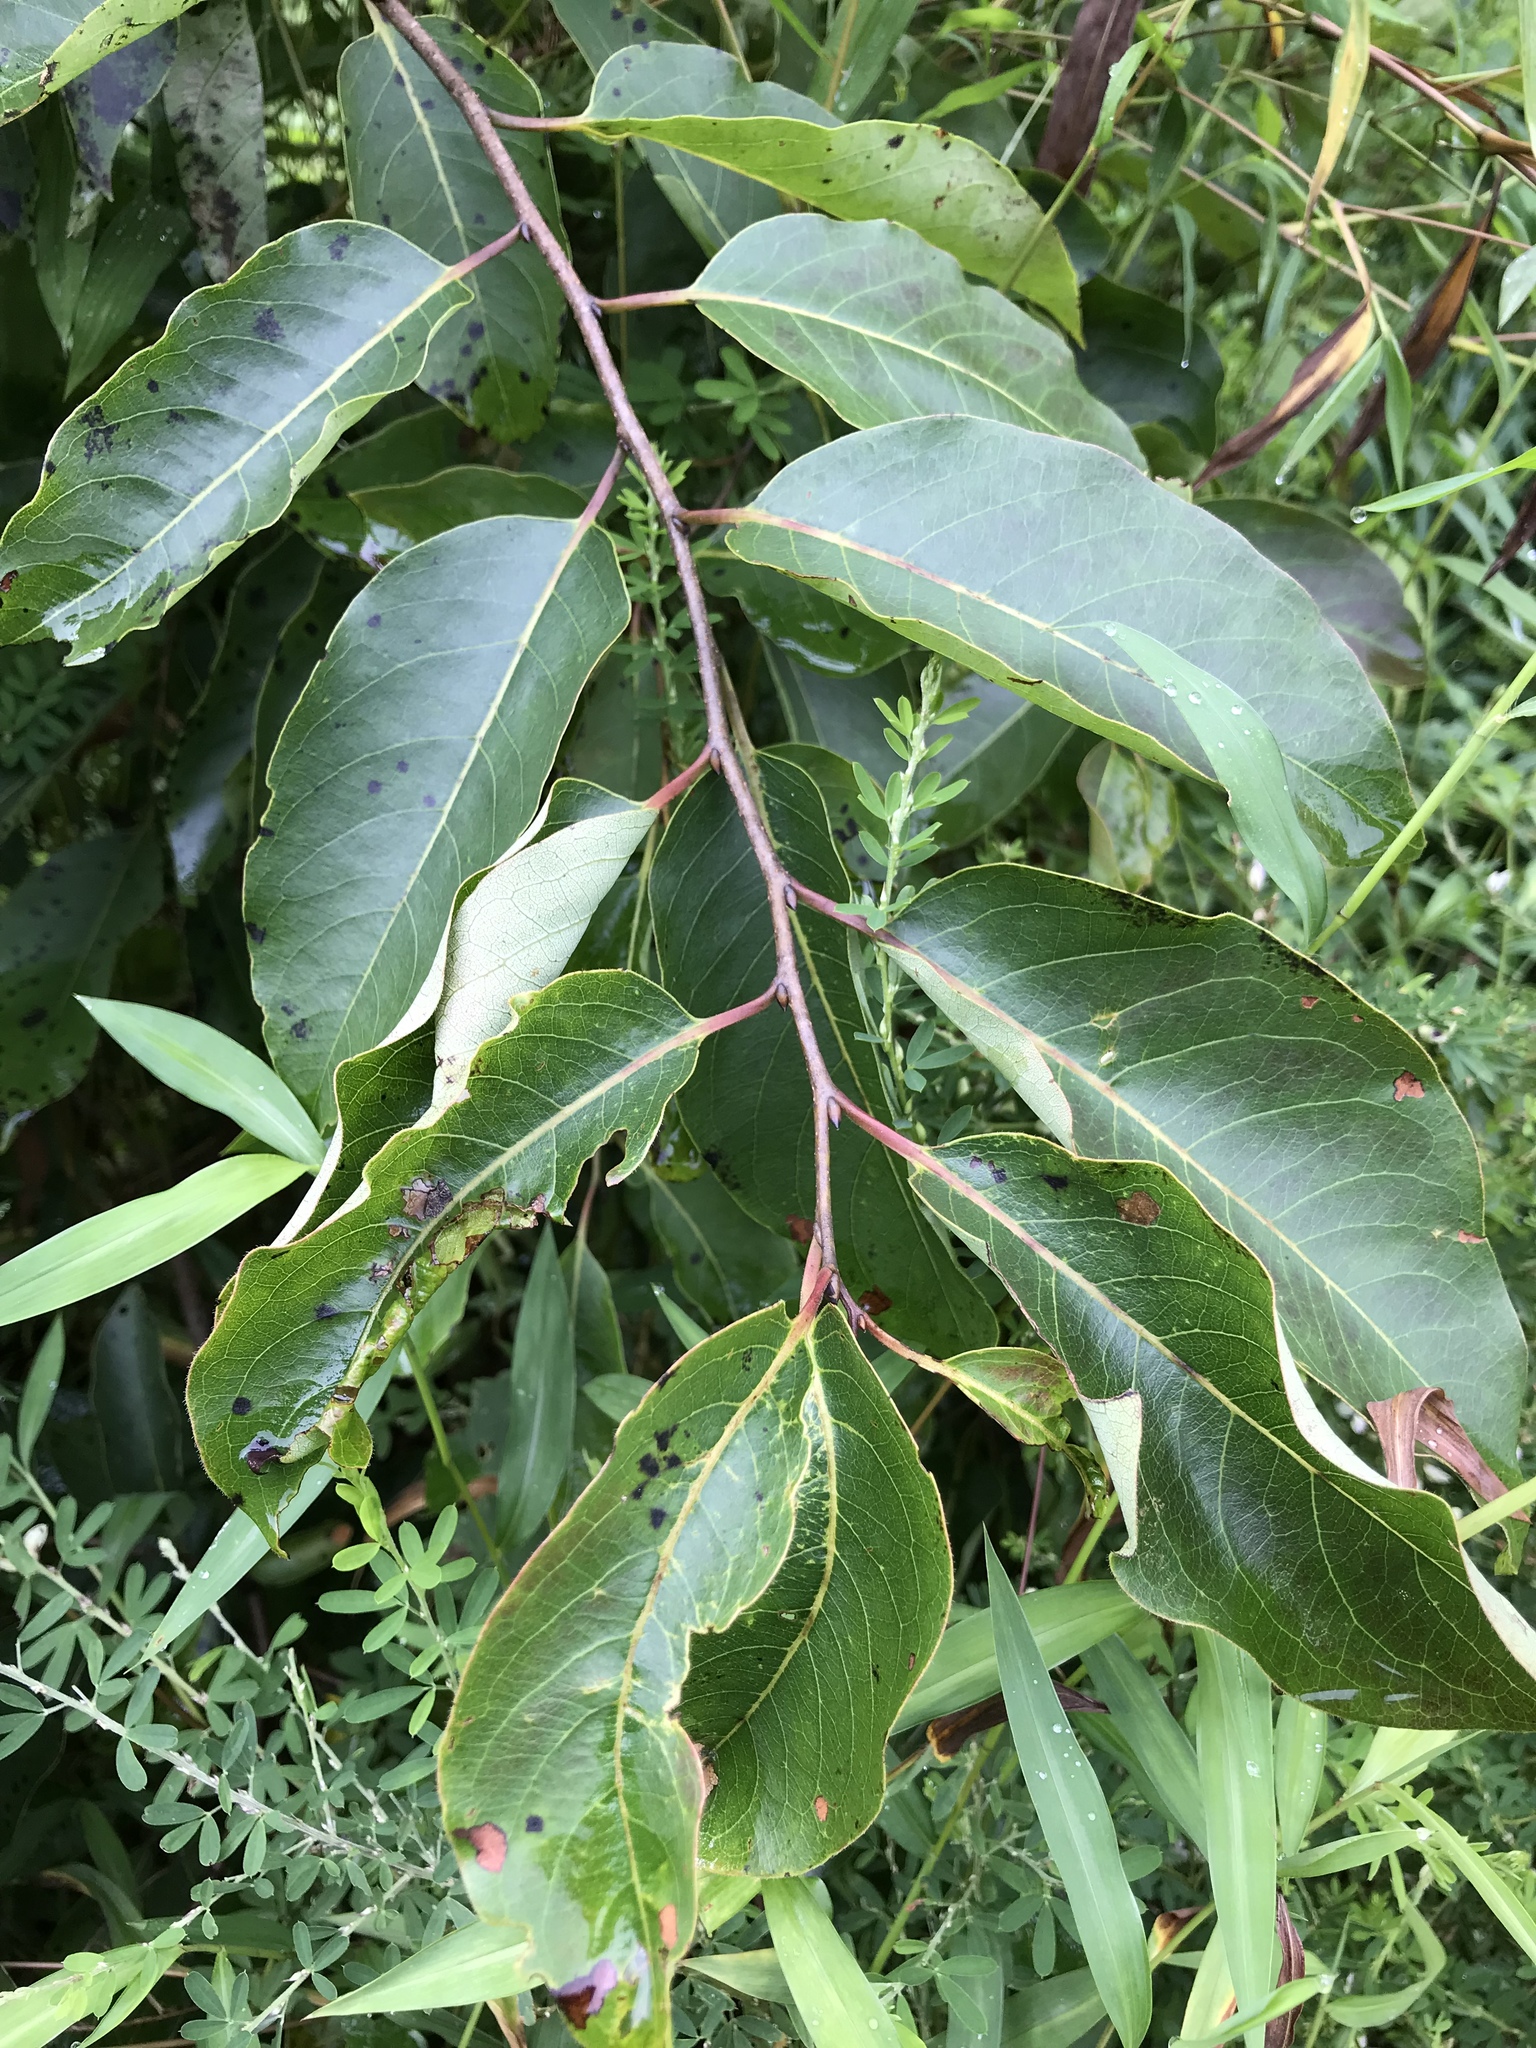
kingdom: Plantae
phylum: Tracheophyta
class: Magnoliopsida
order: Ericales
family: Ebenaceae
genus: Diospyros
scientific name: Diospyros virginiana
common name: Persimmon
